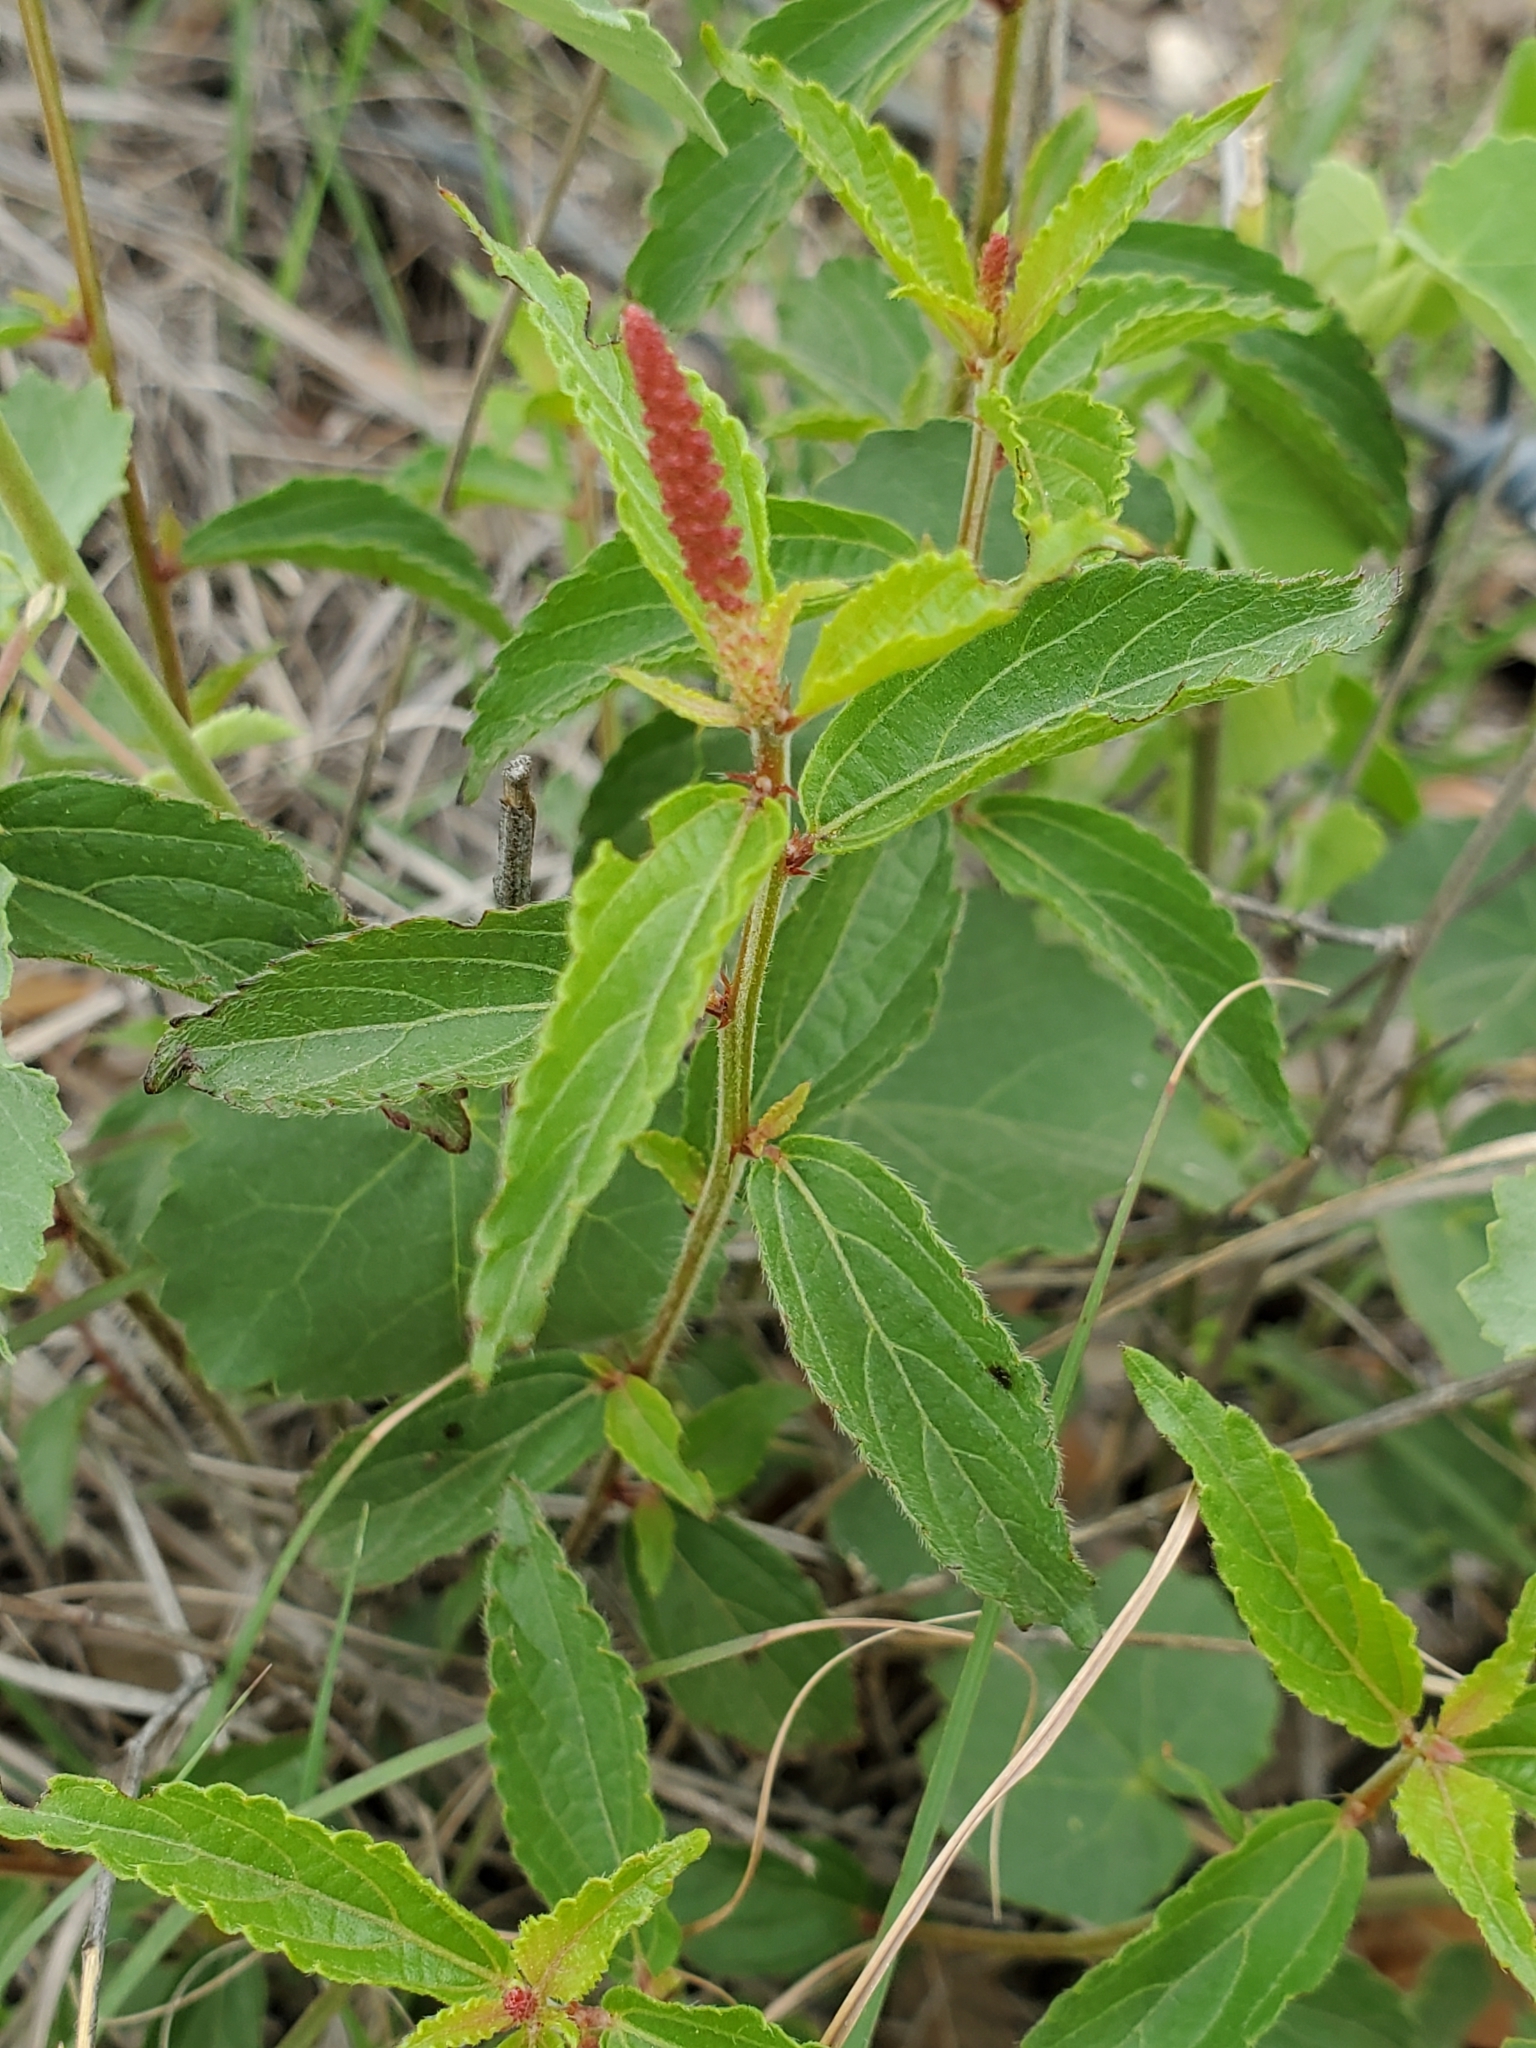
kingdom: Plantae
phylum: Tracheophyta
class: Magnoliopsida
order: Malpighiales
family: Euphorbiaceae
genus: Acalypha
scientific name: Acalypha phleoides
